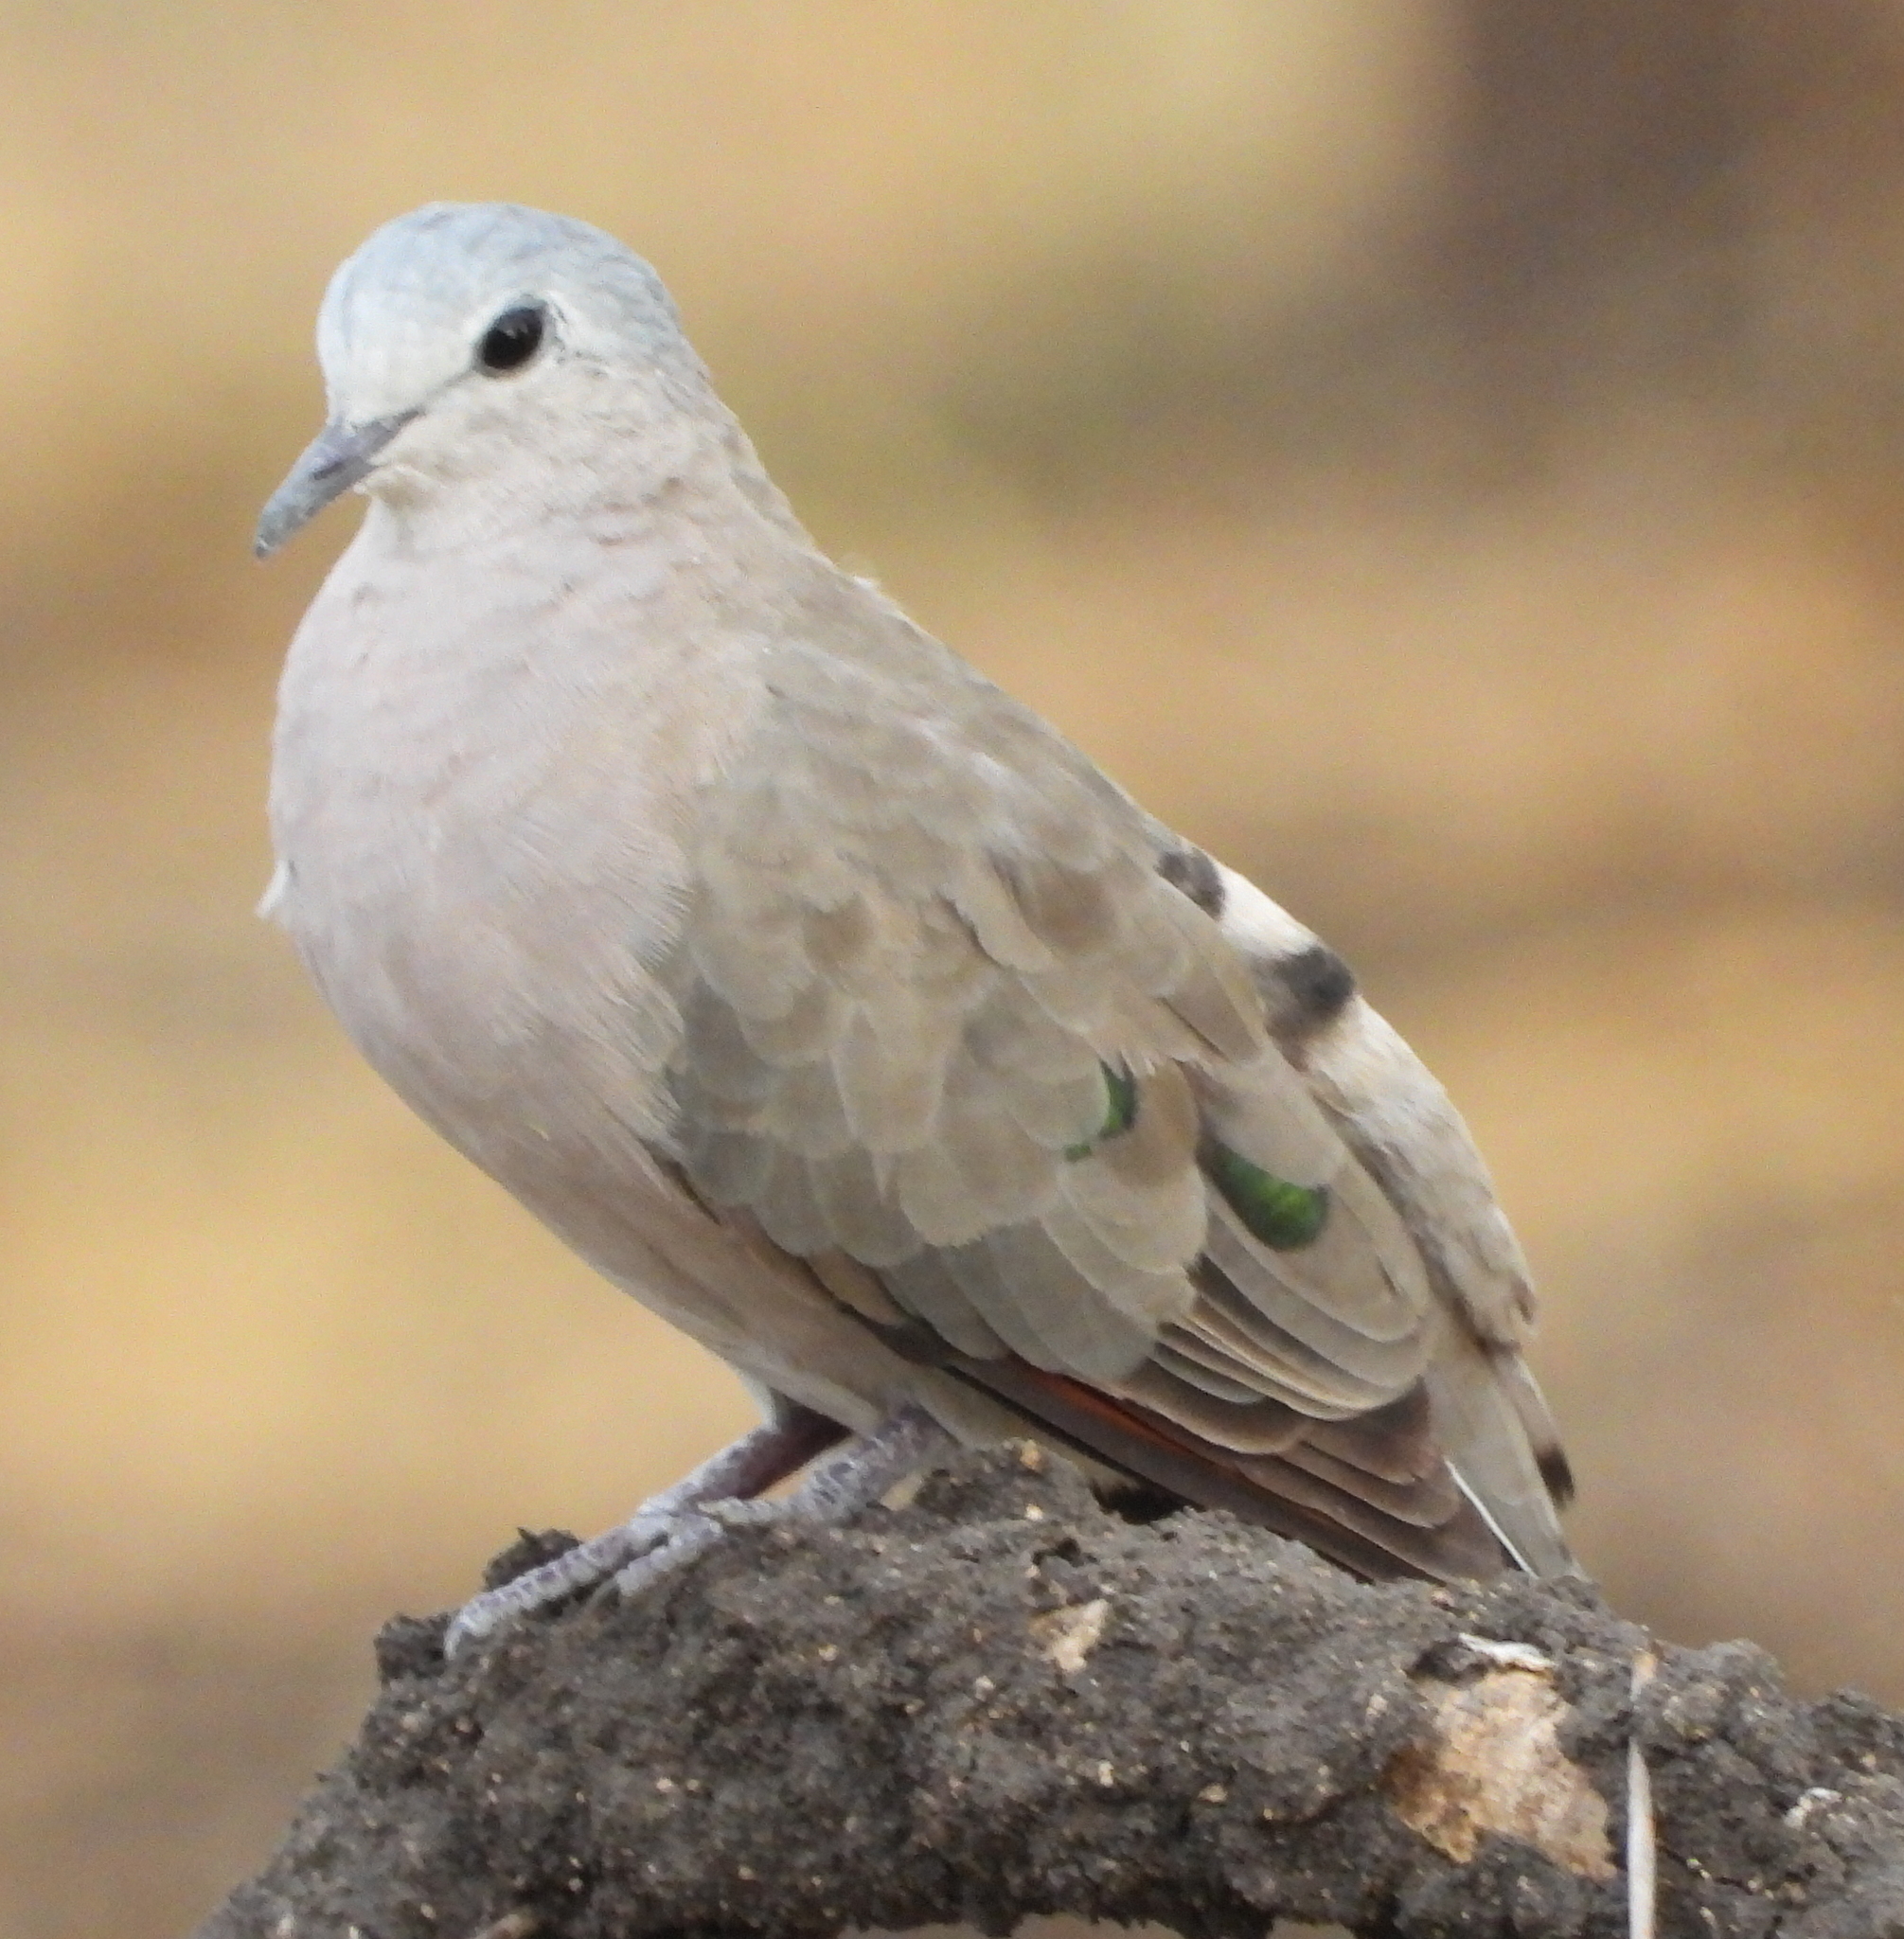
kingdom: Animalia
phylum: Chordata
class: Aves
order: Columbiformes
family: Columbidae
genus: Turtur
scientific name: Turtur chalcospilos
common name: Emerald-spotted wood dove
